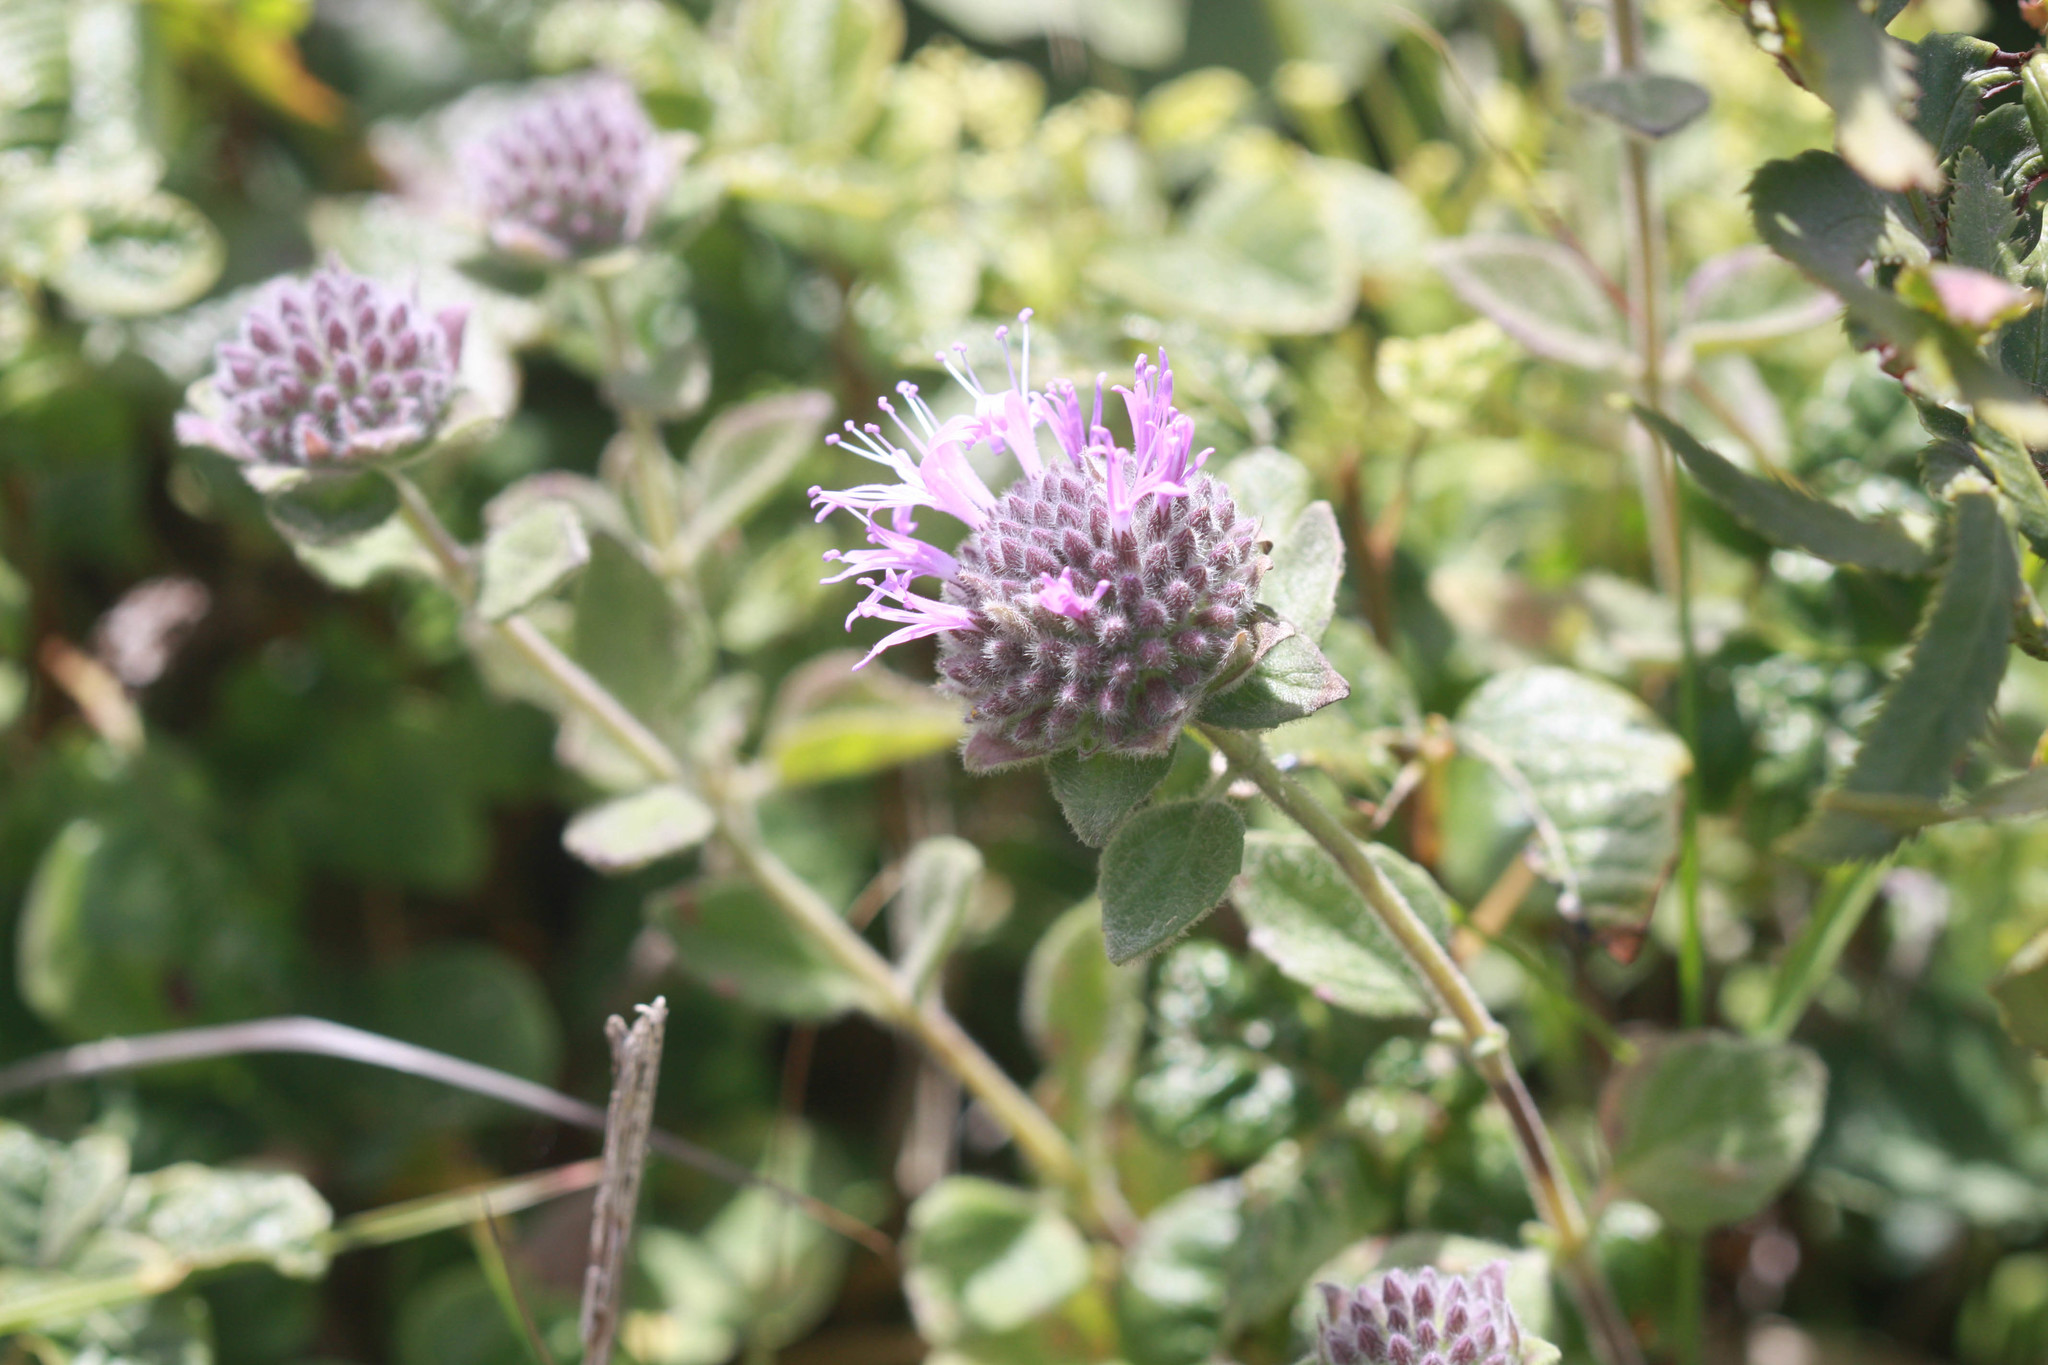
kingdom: Plantae
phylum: Tracheophyta
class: Magnoliopsida
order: Lamiales
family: Lamiaceae
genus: Monardella
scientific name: Monardella odoratissima
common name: Pacific monardella
